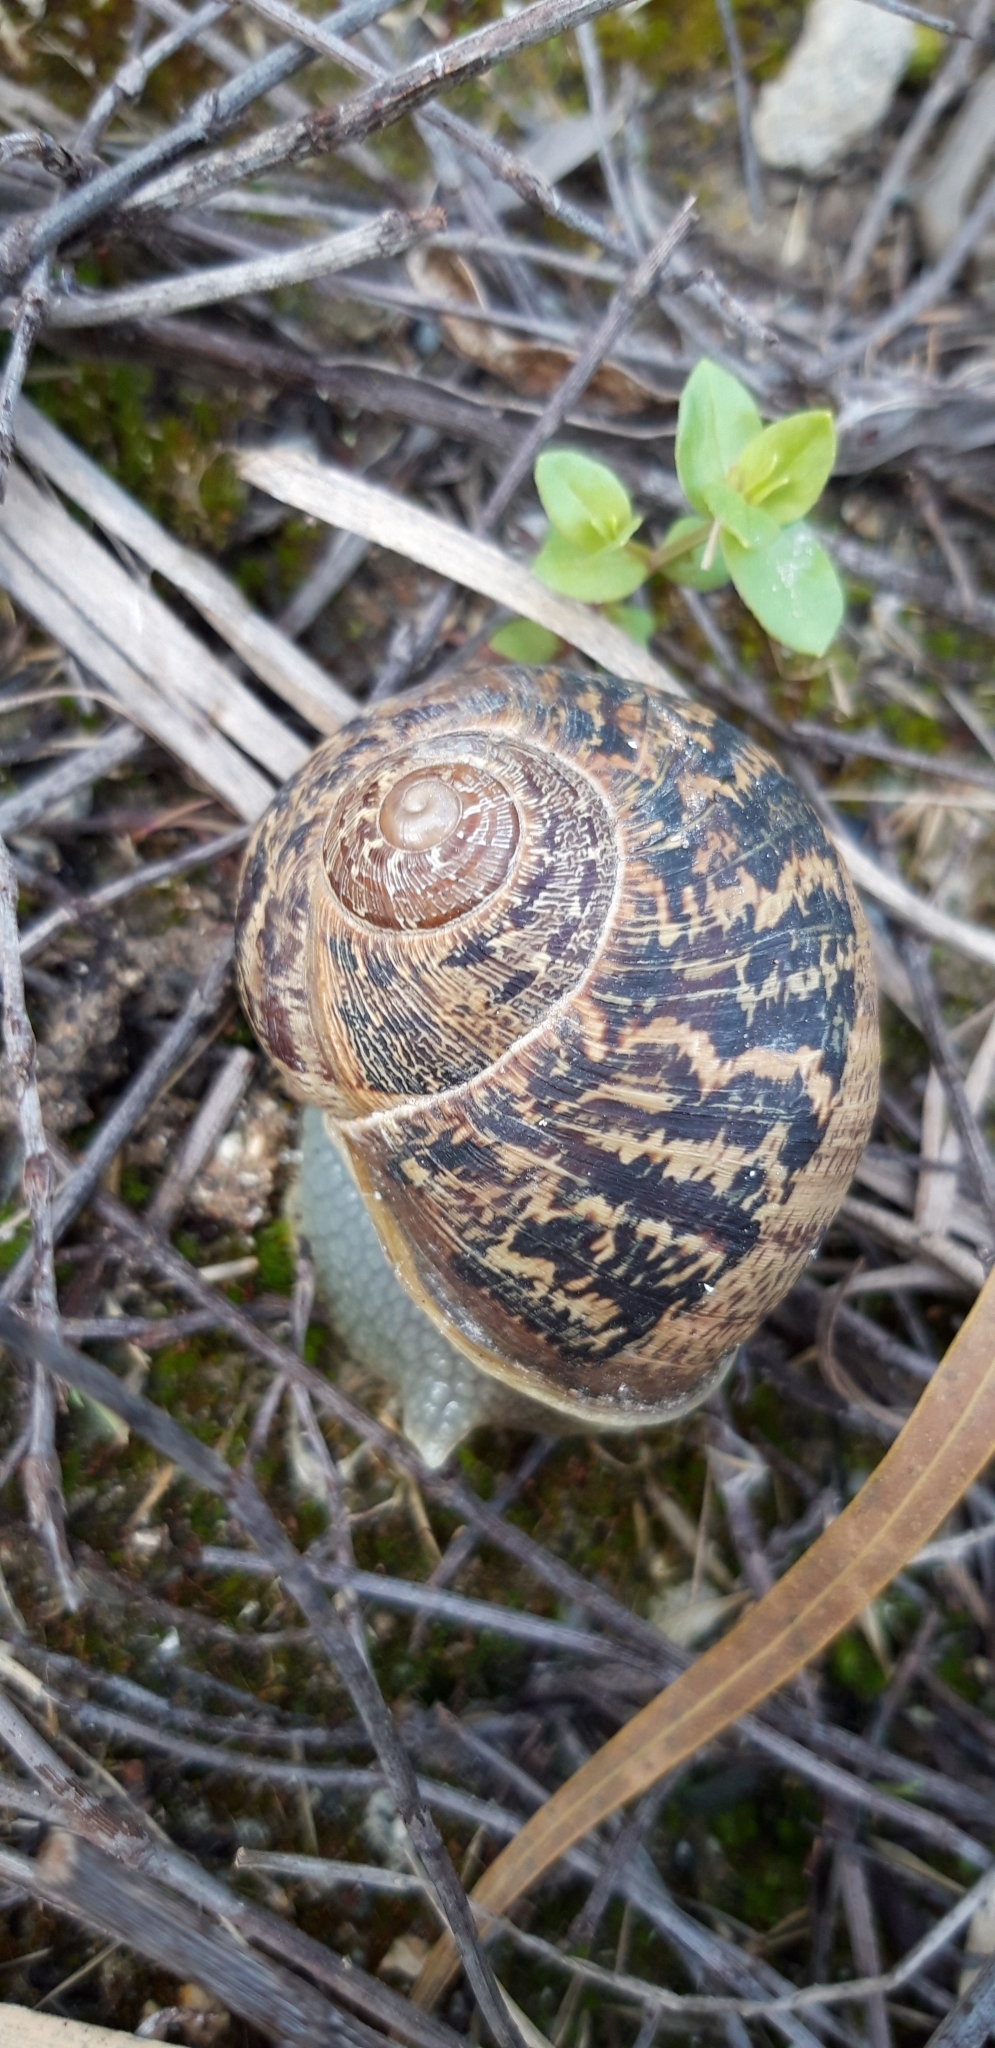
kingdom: Animalia
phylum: Mollusca
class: Gastropoda
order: Stylommatophora
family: Helicidae
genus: Cornu
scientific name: Cornu aspersum
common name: Brown garden snail
